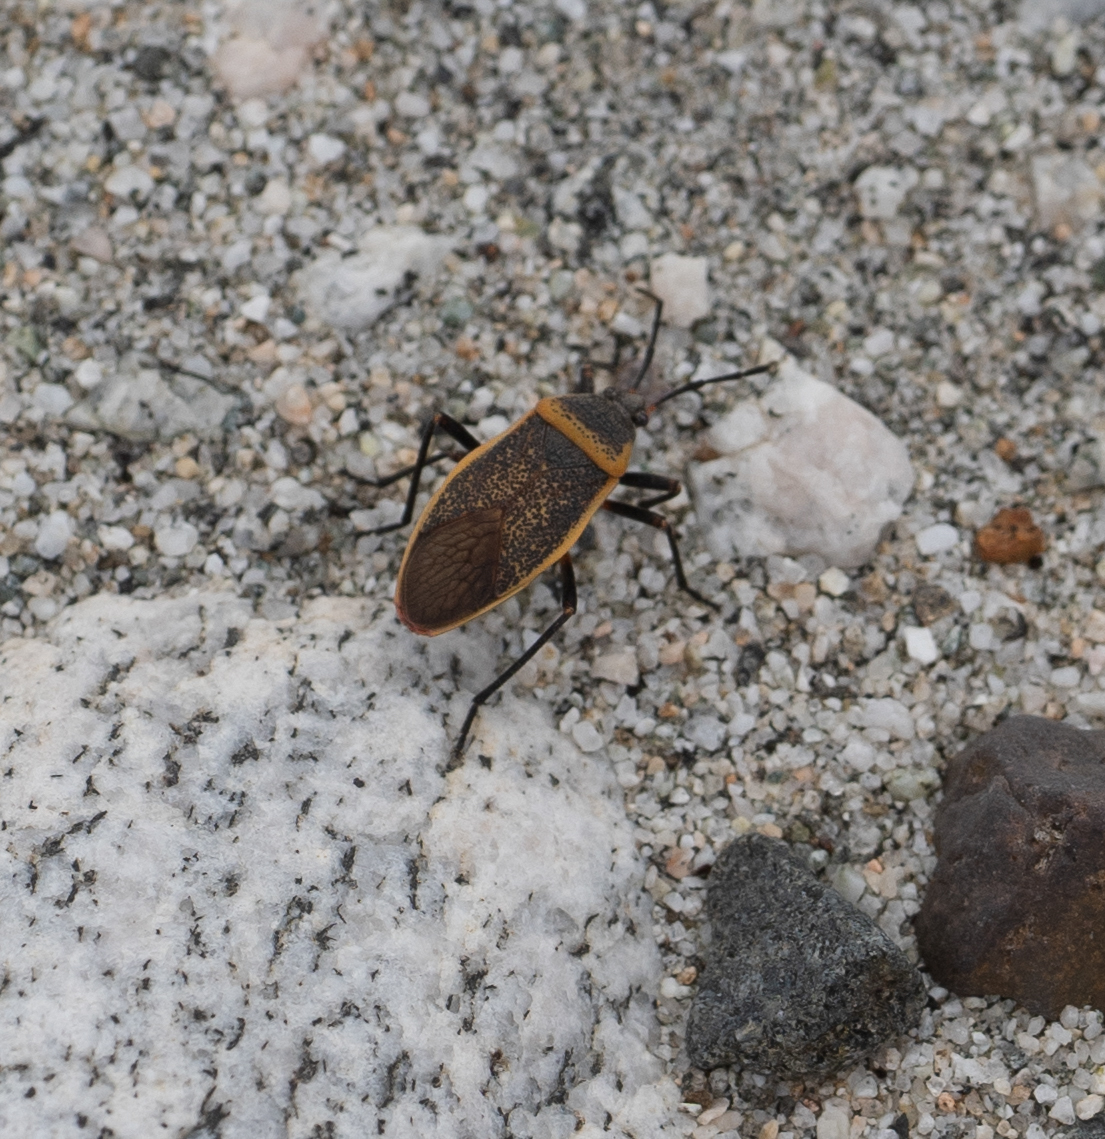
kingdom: Animalia
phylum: Arthropoda
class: Insecta
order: Hemiptera
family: Largidae
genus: Largus
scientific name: Largus californicus
